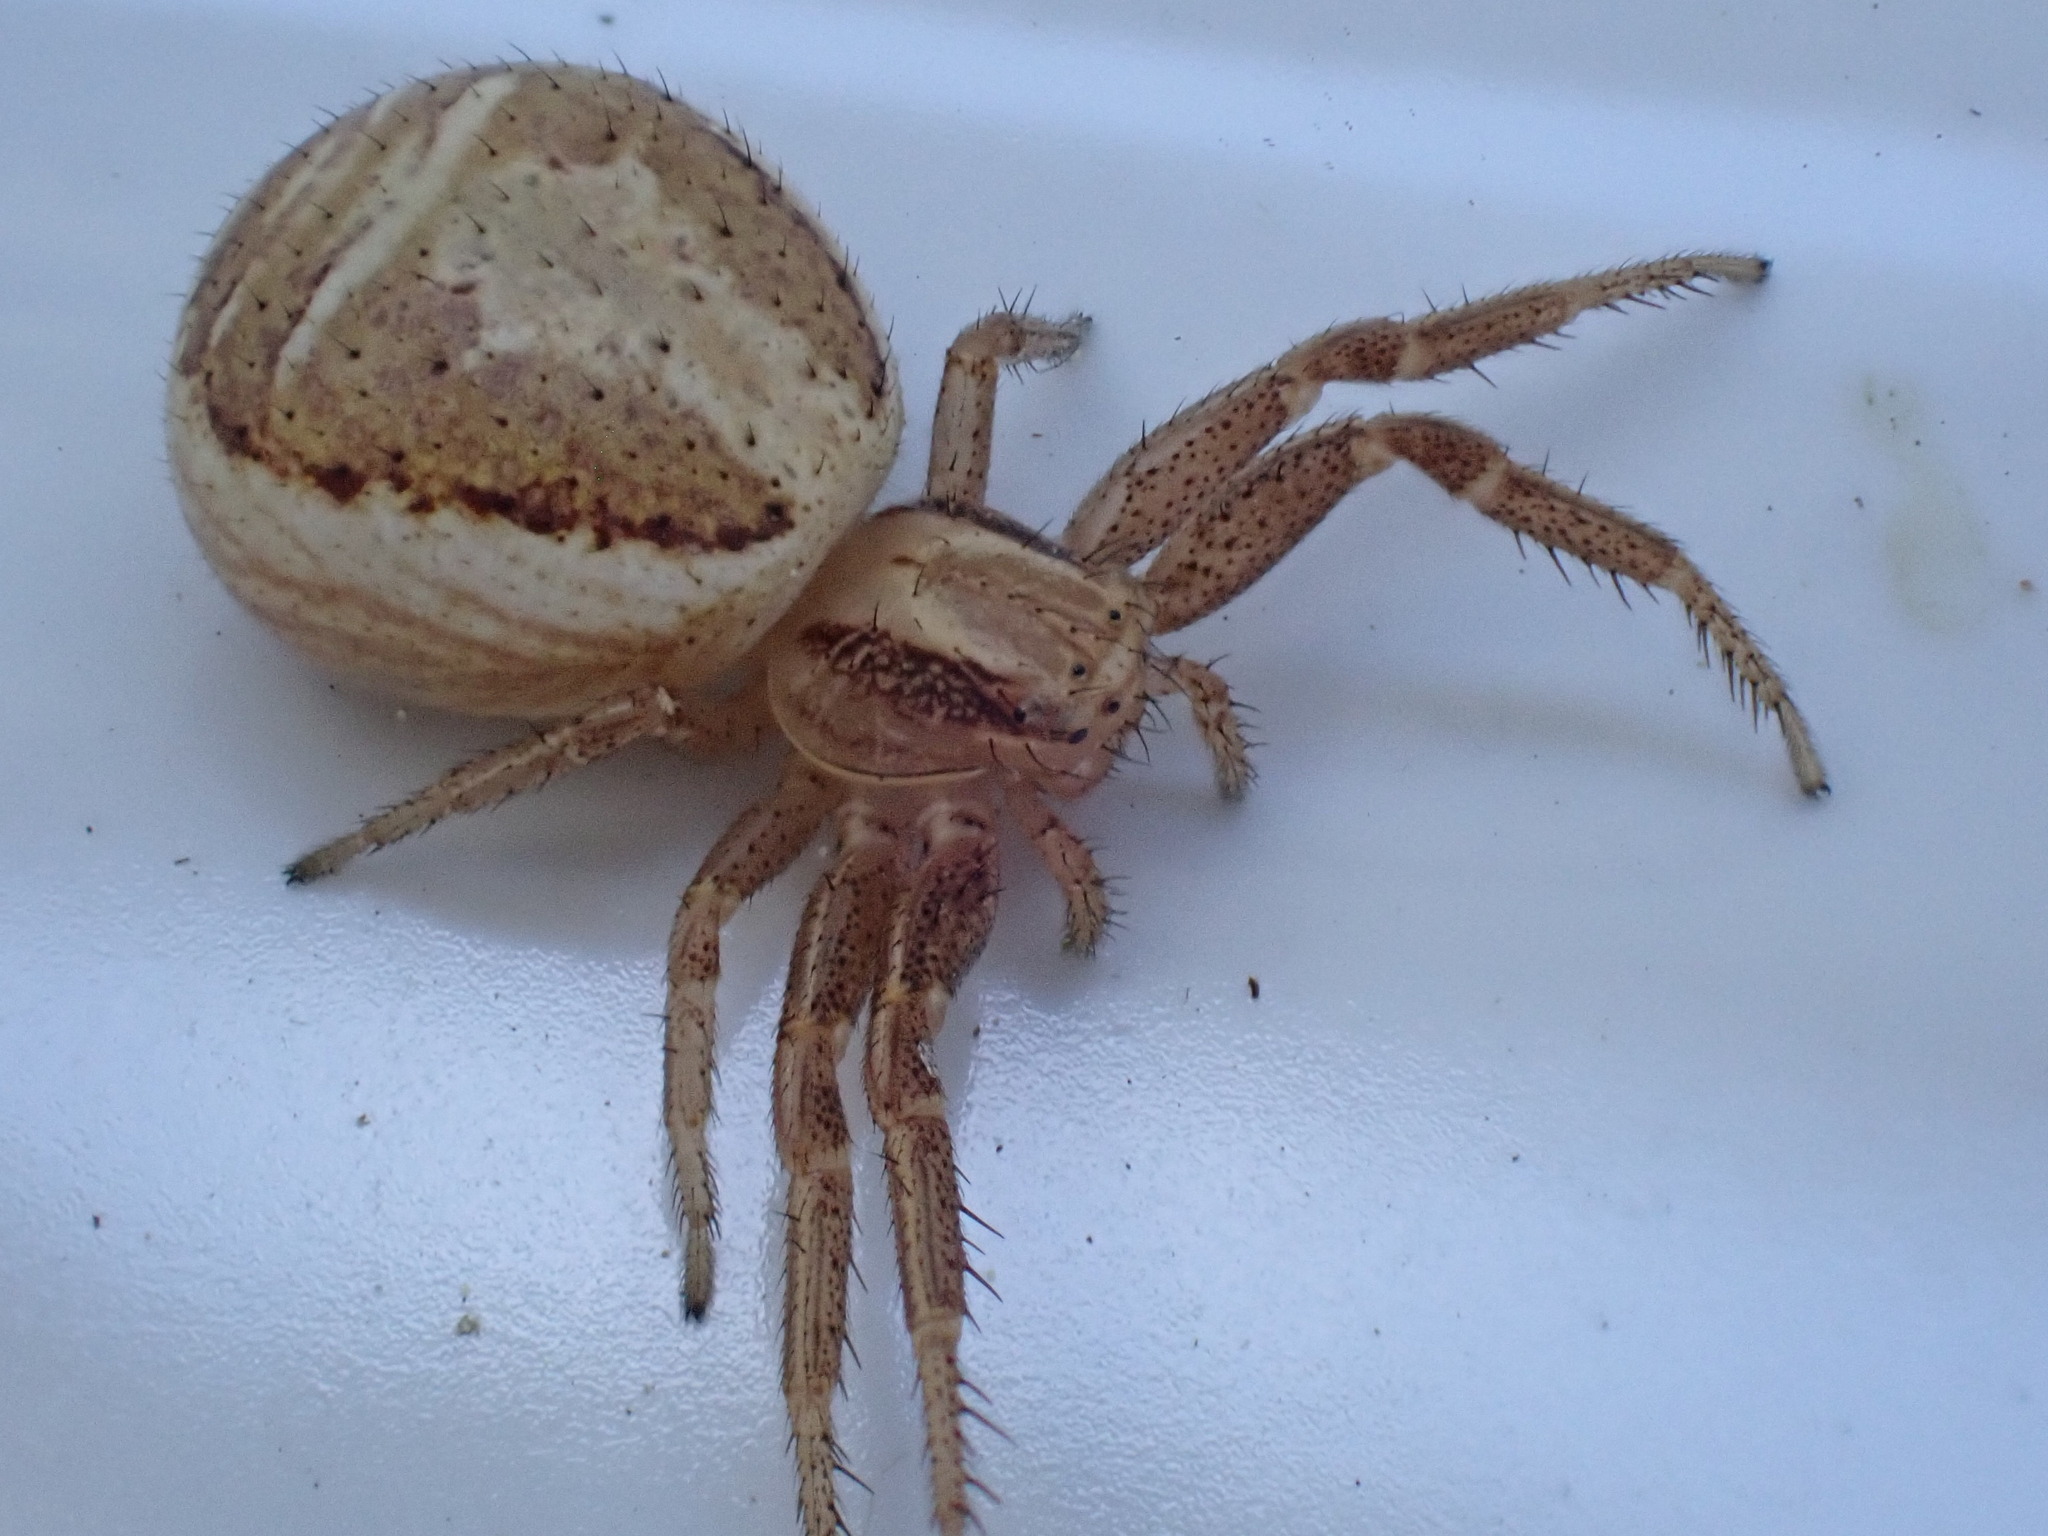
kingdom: Animalia
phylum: Arthropoda
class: Arachnida
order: Araneae
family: Thomisidae
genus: Xysticus
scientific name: Xysticus ulmi
